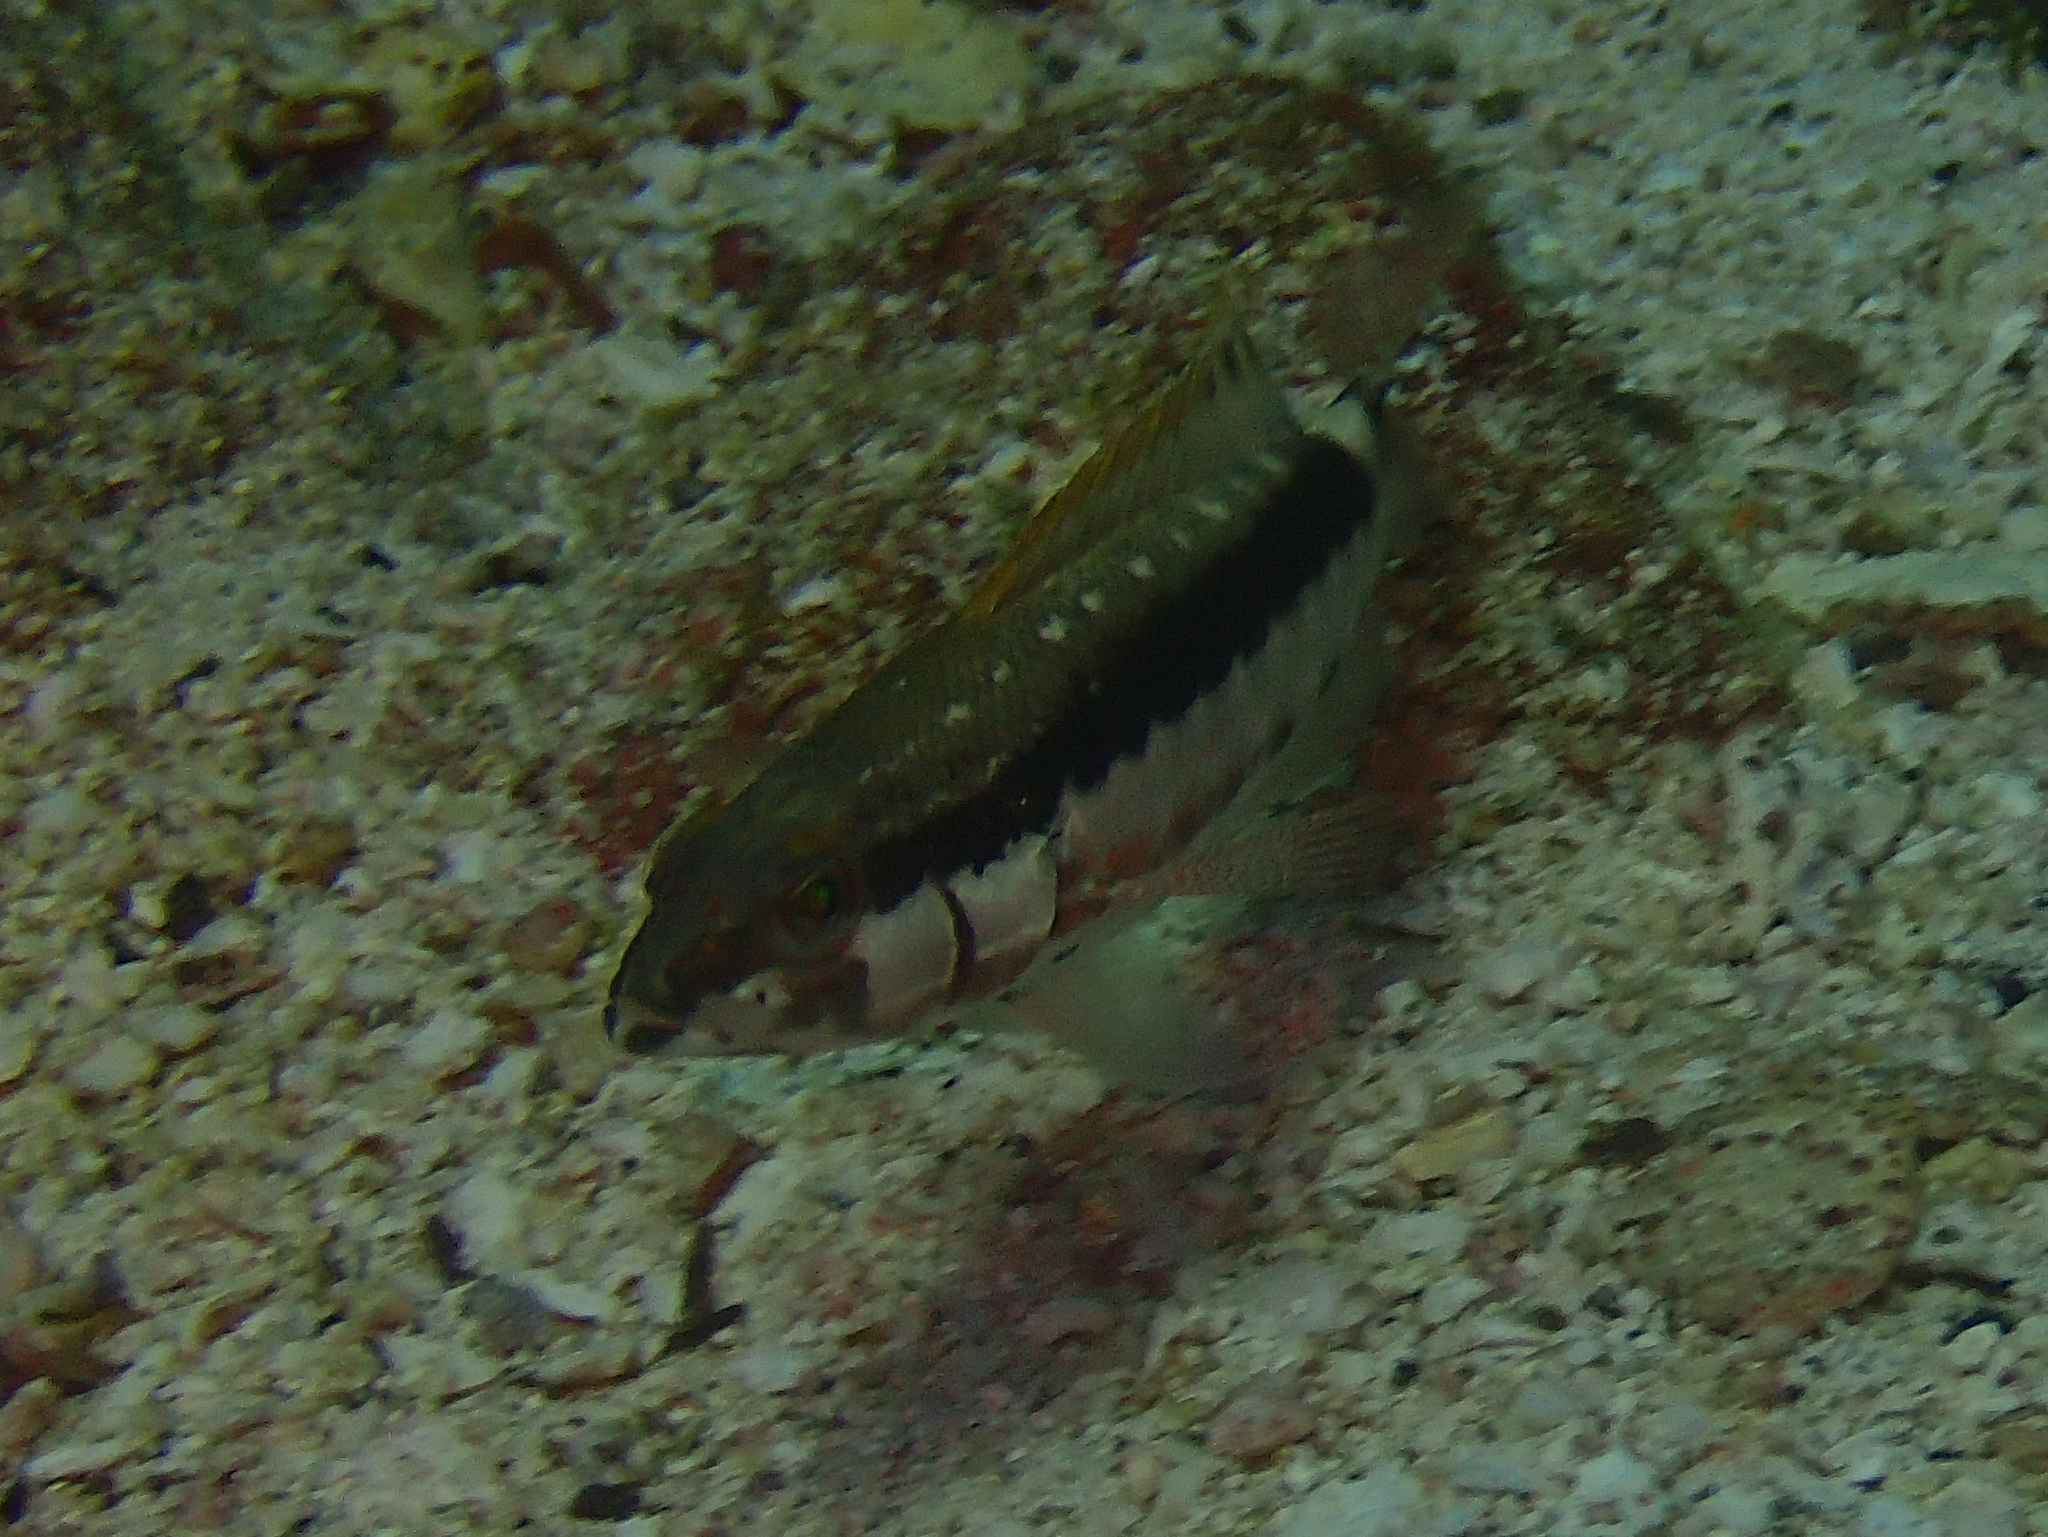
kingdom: Animalia
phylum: Chordata
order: Perciformes
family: Serranidae
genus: Serranus
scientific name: Serranus psittacinus
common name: Barred serrano
